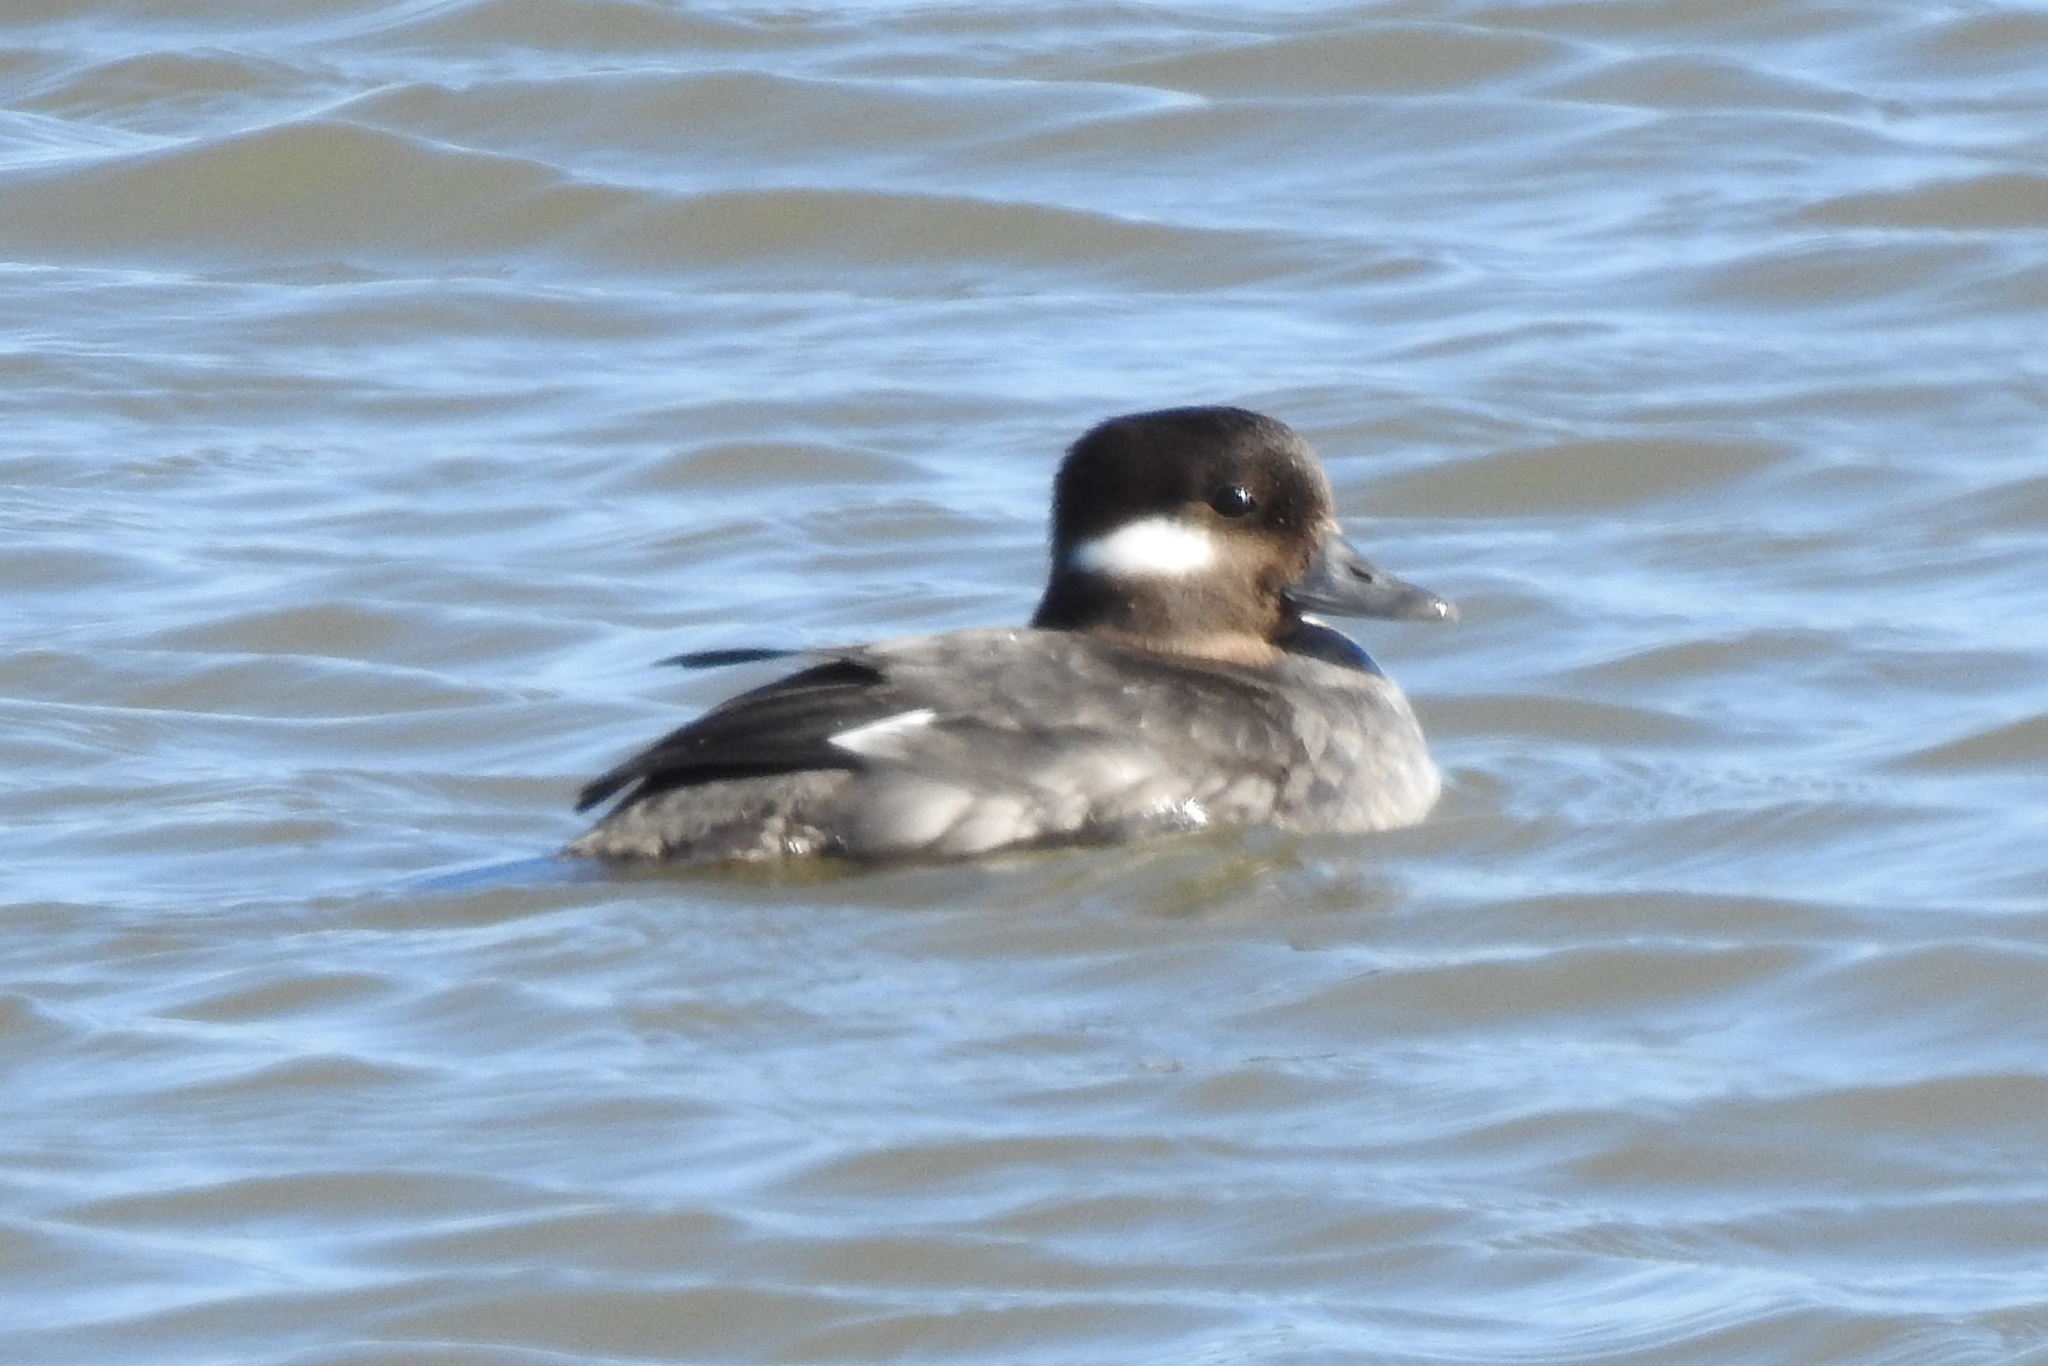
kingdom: Animalia
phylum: Chordata
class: Aves
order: Anseriformes
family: Anatidae
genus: Bucephala
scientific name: Bucephala albeola
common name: Bufflehead
